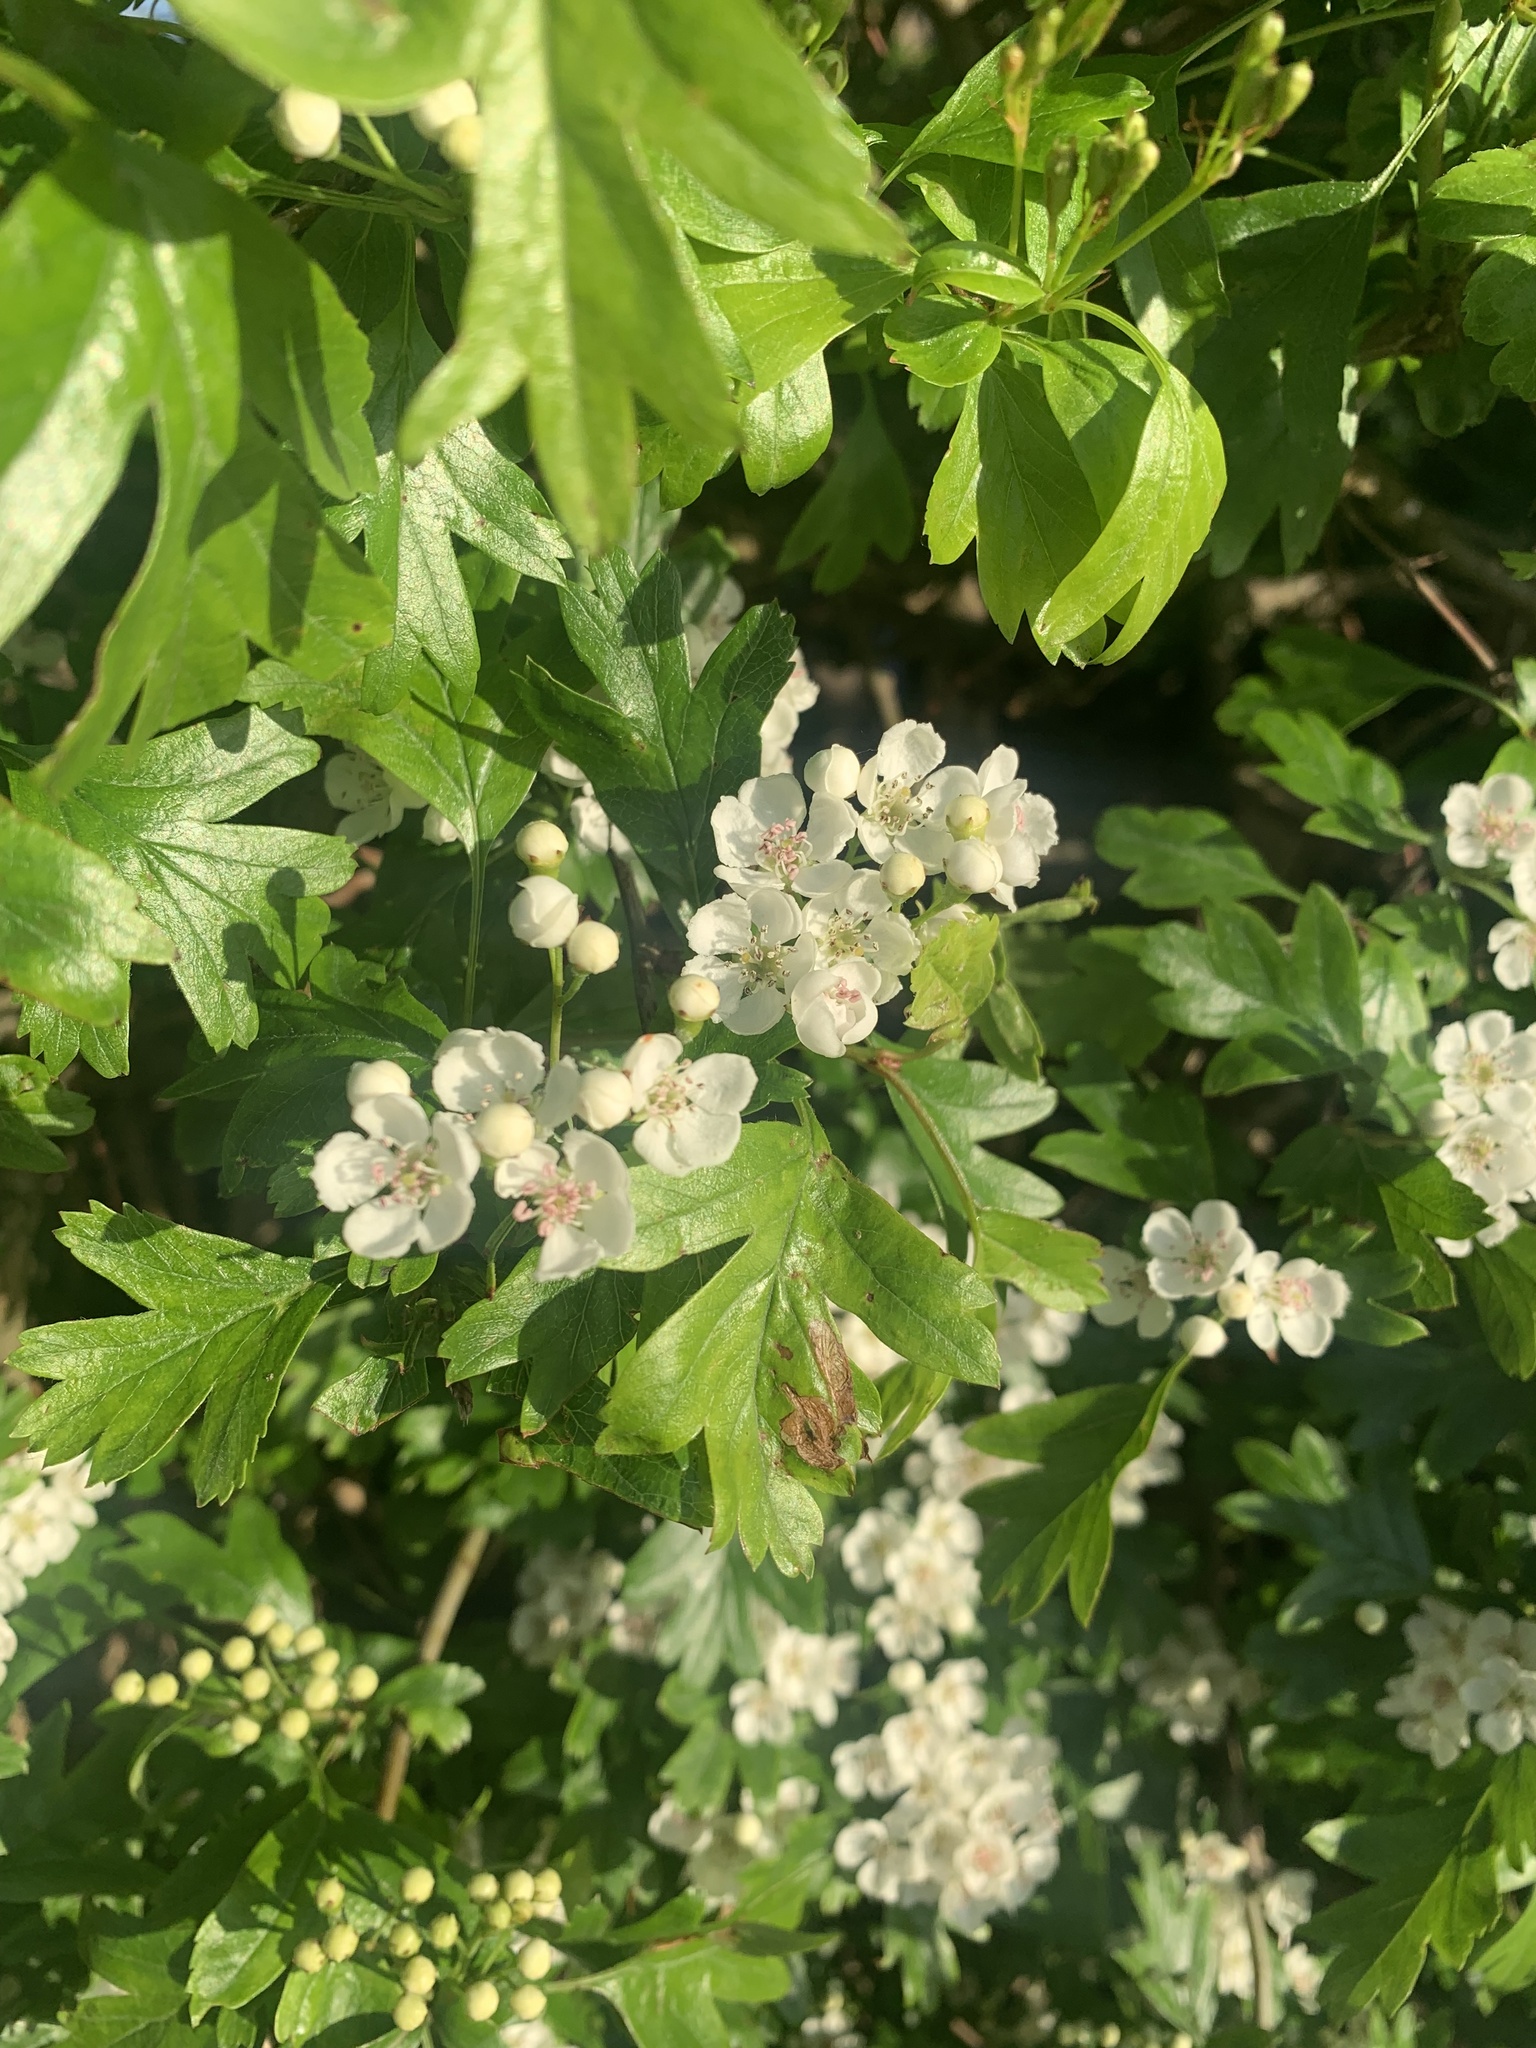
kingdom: Plantae
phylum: Tracheophyta
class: Magnoliopsida
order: Rosales
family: Rosaceae
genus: Crataegus
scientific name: Crataegus monogyna
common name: Hawthorn
